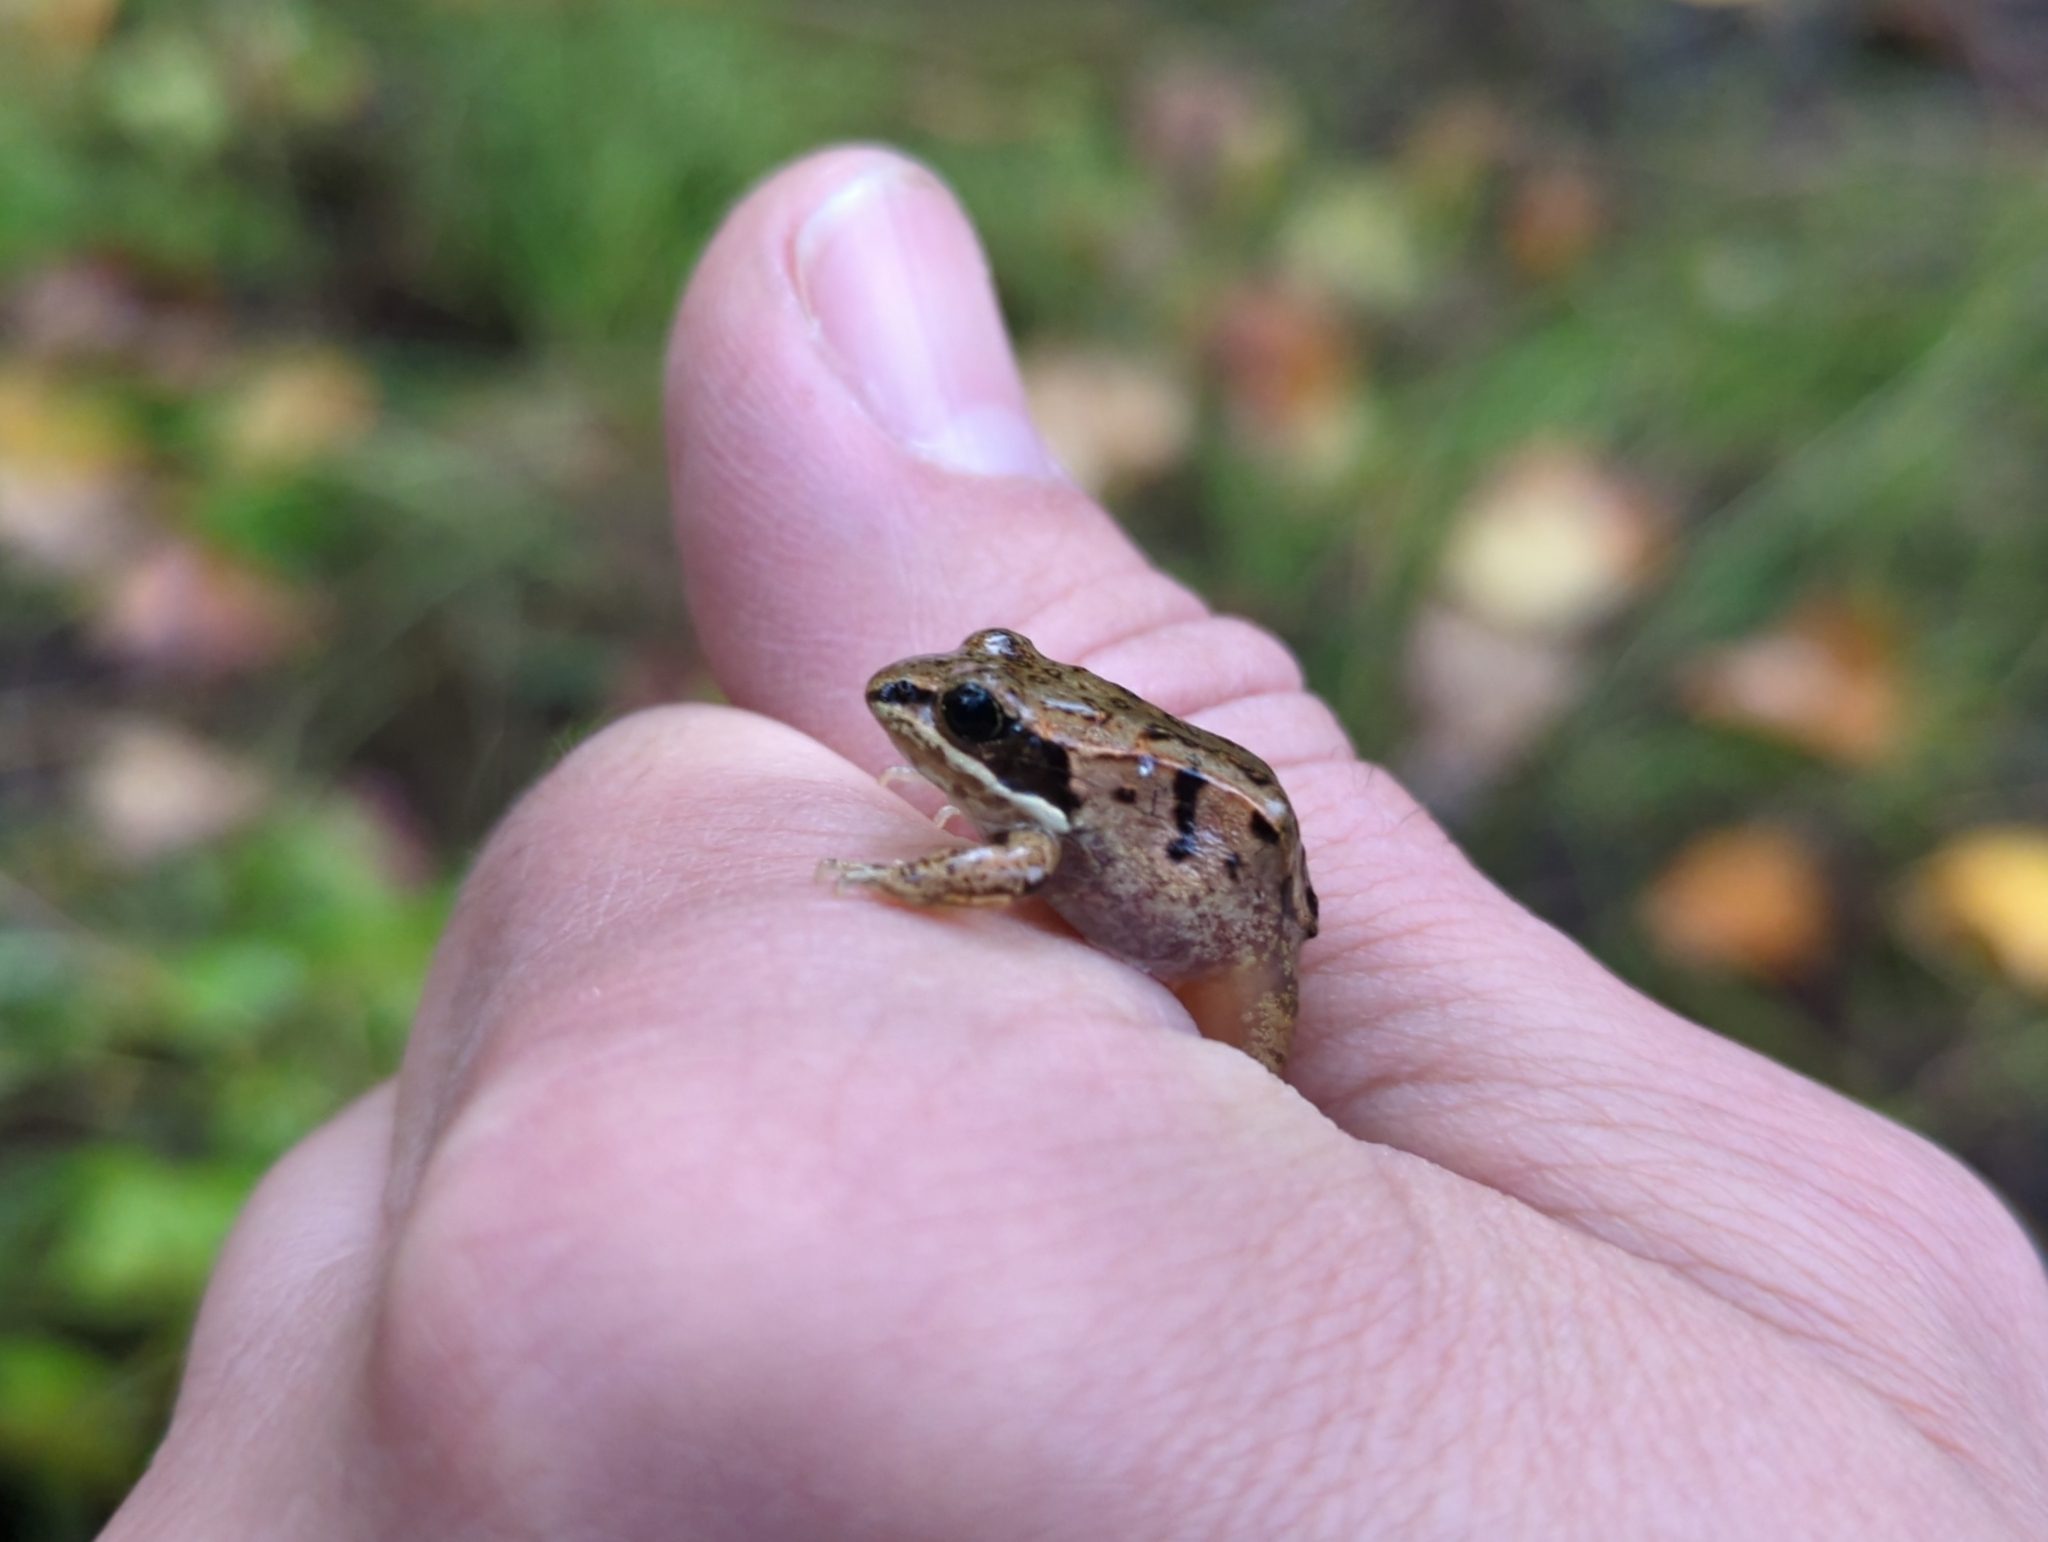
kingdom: Animalia
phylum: Chordata
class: Amphibia
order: Anura
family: Ranidae
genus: Lithobates
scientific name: Lithobates sylvaticus
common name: Wood frog
